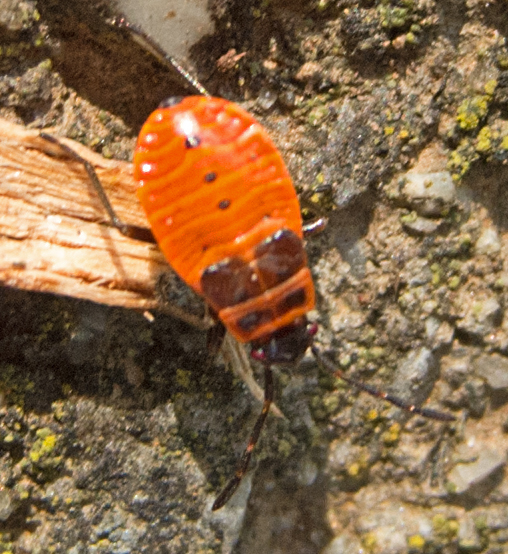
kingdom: Animalia
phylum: Arthropoda
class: Insecta
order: Hemiptera
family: Pyrrhocoridae
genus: Pyrrhocoris
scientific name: Pyrrhocoris apterus
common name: Firebug
